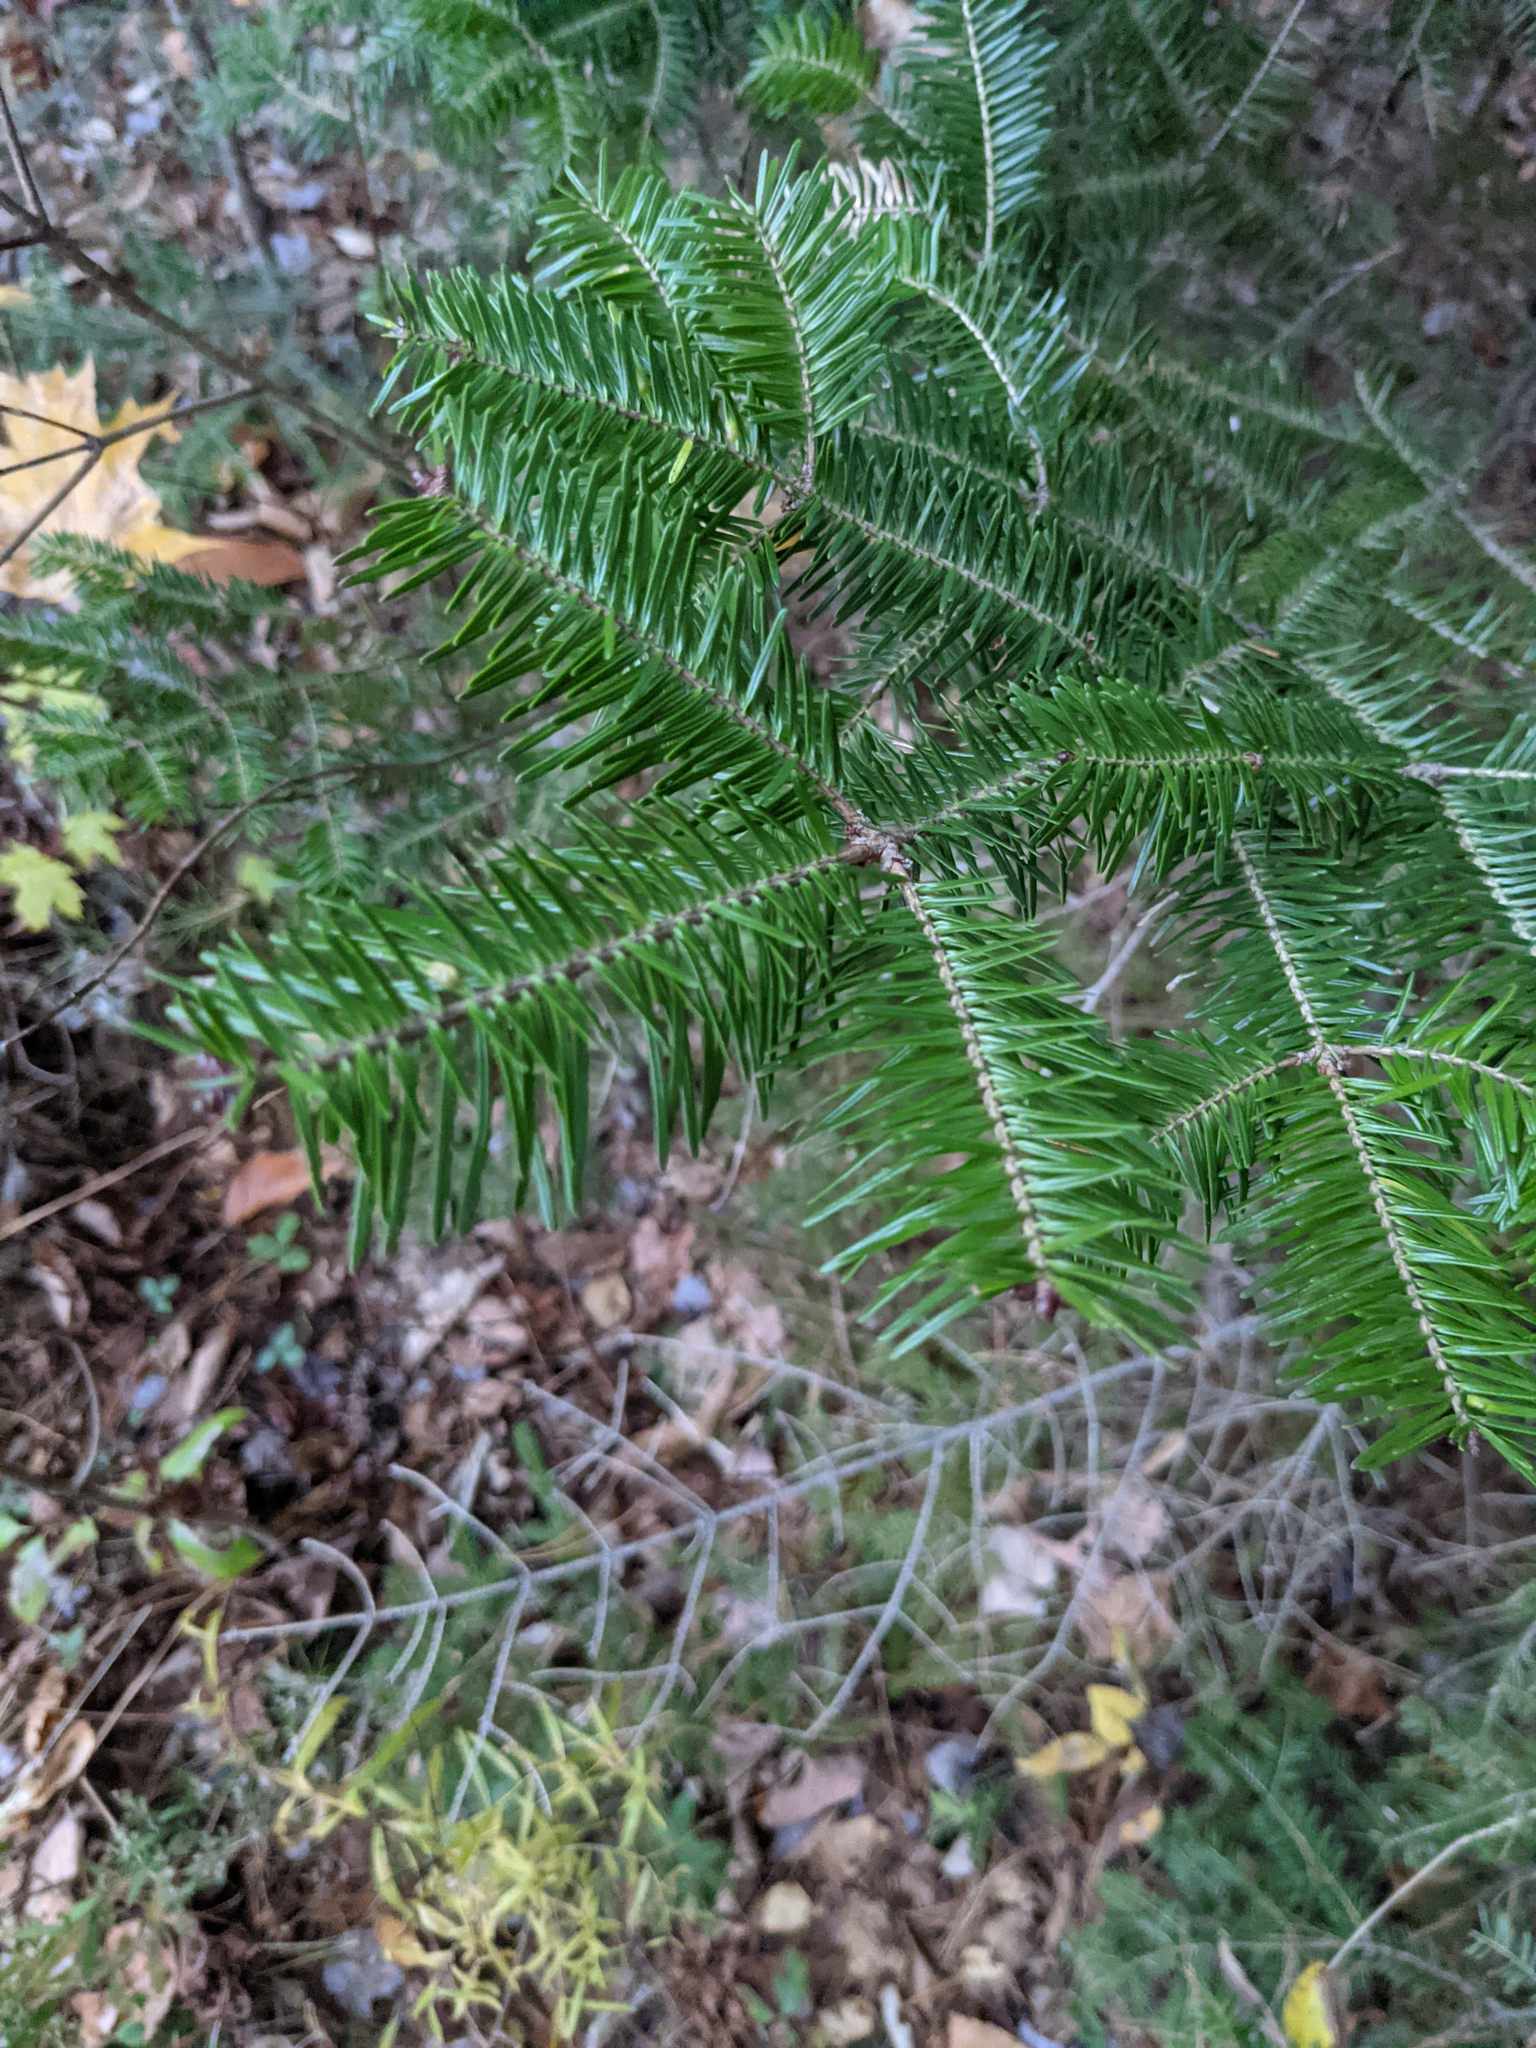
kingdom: Plantae
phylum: Tracheophyta
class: Pinopsida
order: Pinales
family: Pinaceae
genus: Abies
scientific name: Abies balsamea
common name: Balsam fir
